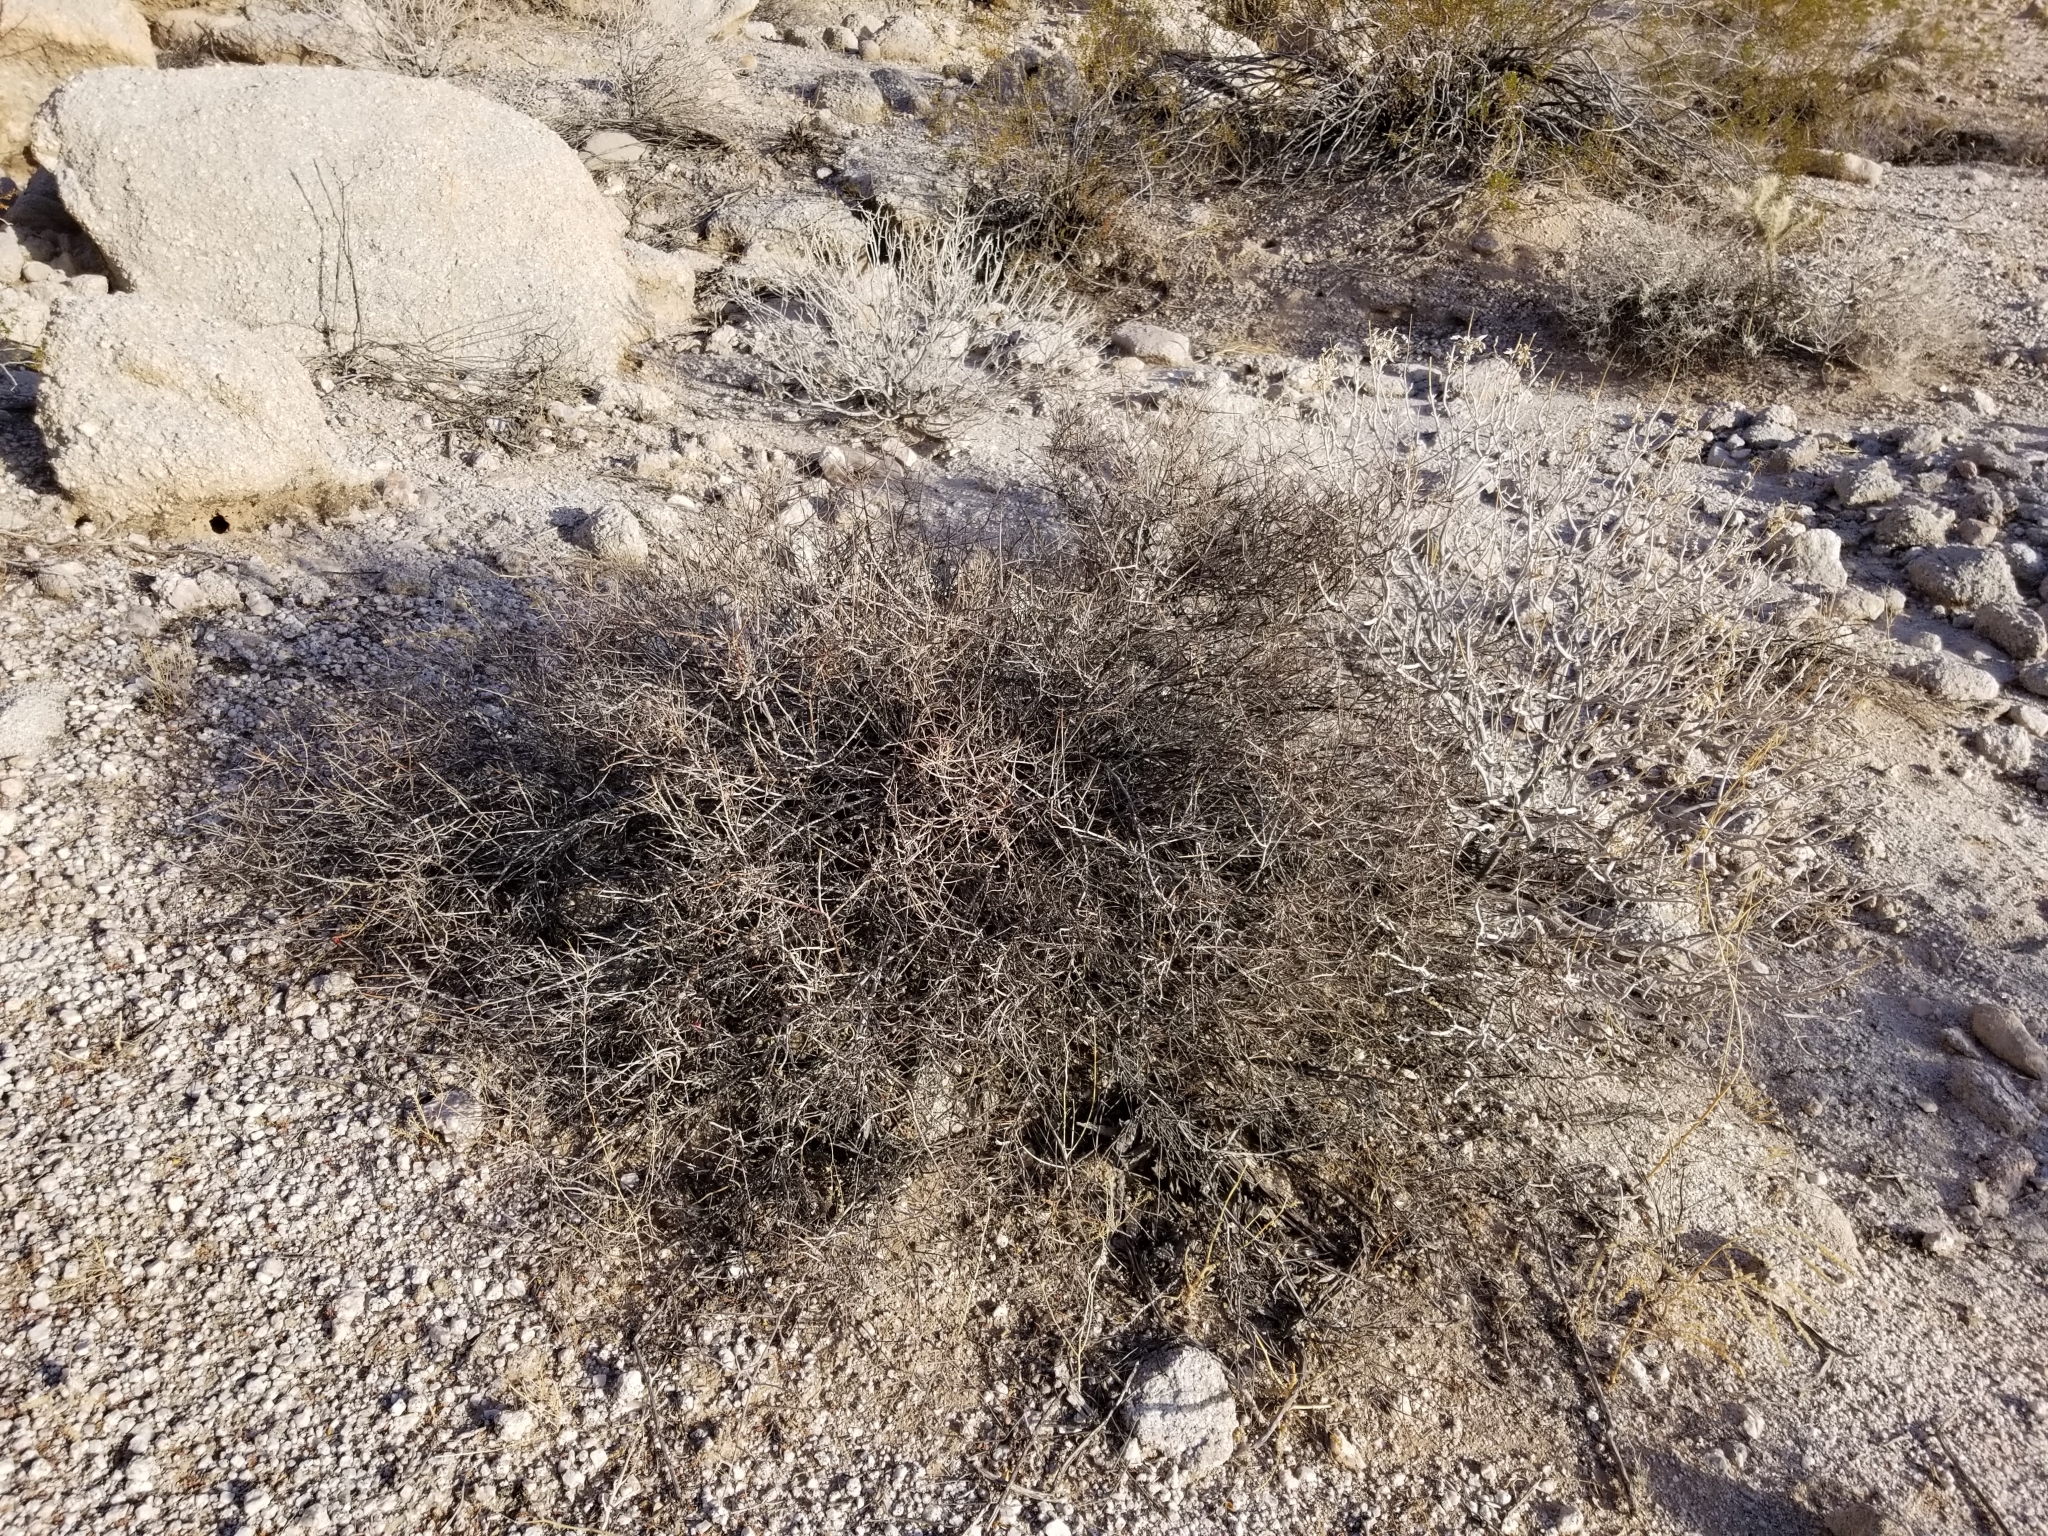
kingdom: Plantae
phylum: Tracheophyta
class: Magnoliopsida
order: Zygophyllales
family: Krameriaceae
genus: Krameria
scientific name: Krameria bicolor
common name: White ratany
